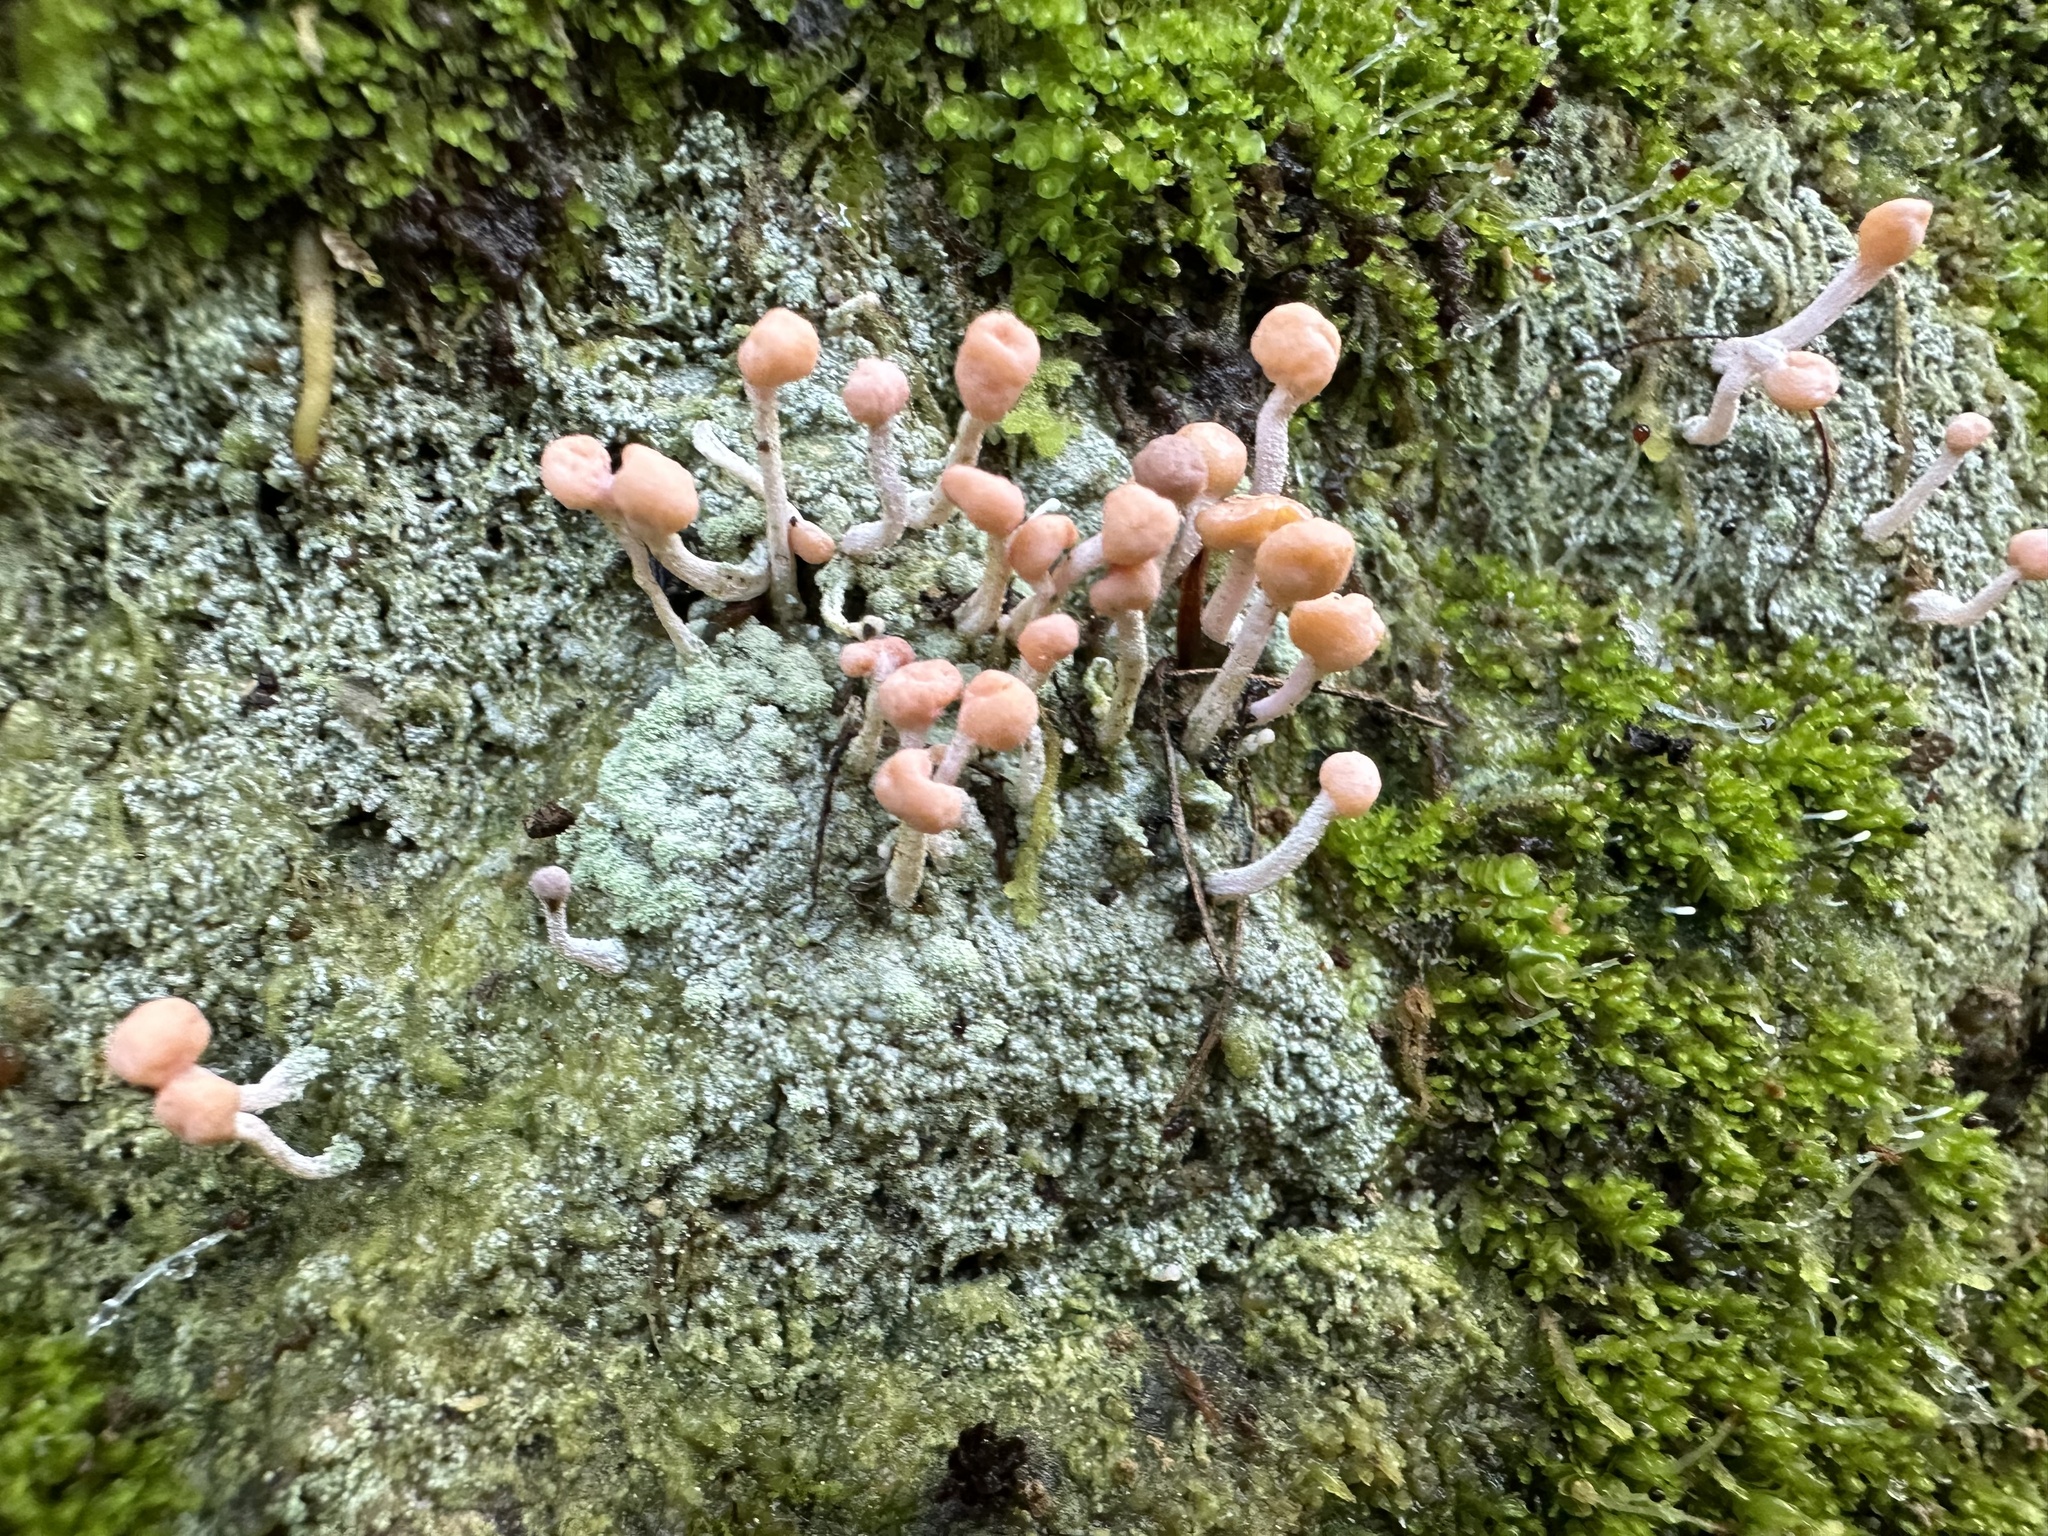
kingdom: Fungi
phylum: Ascomycota
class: Lecanoromycetes
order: Pertusariales
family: Icmadophilaceae
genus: Dibaeis
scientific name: Dibaeis arcuata
